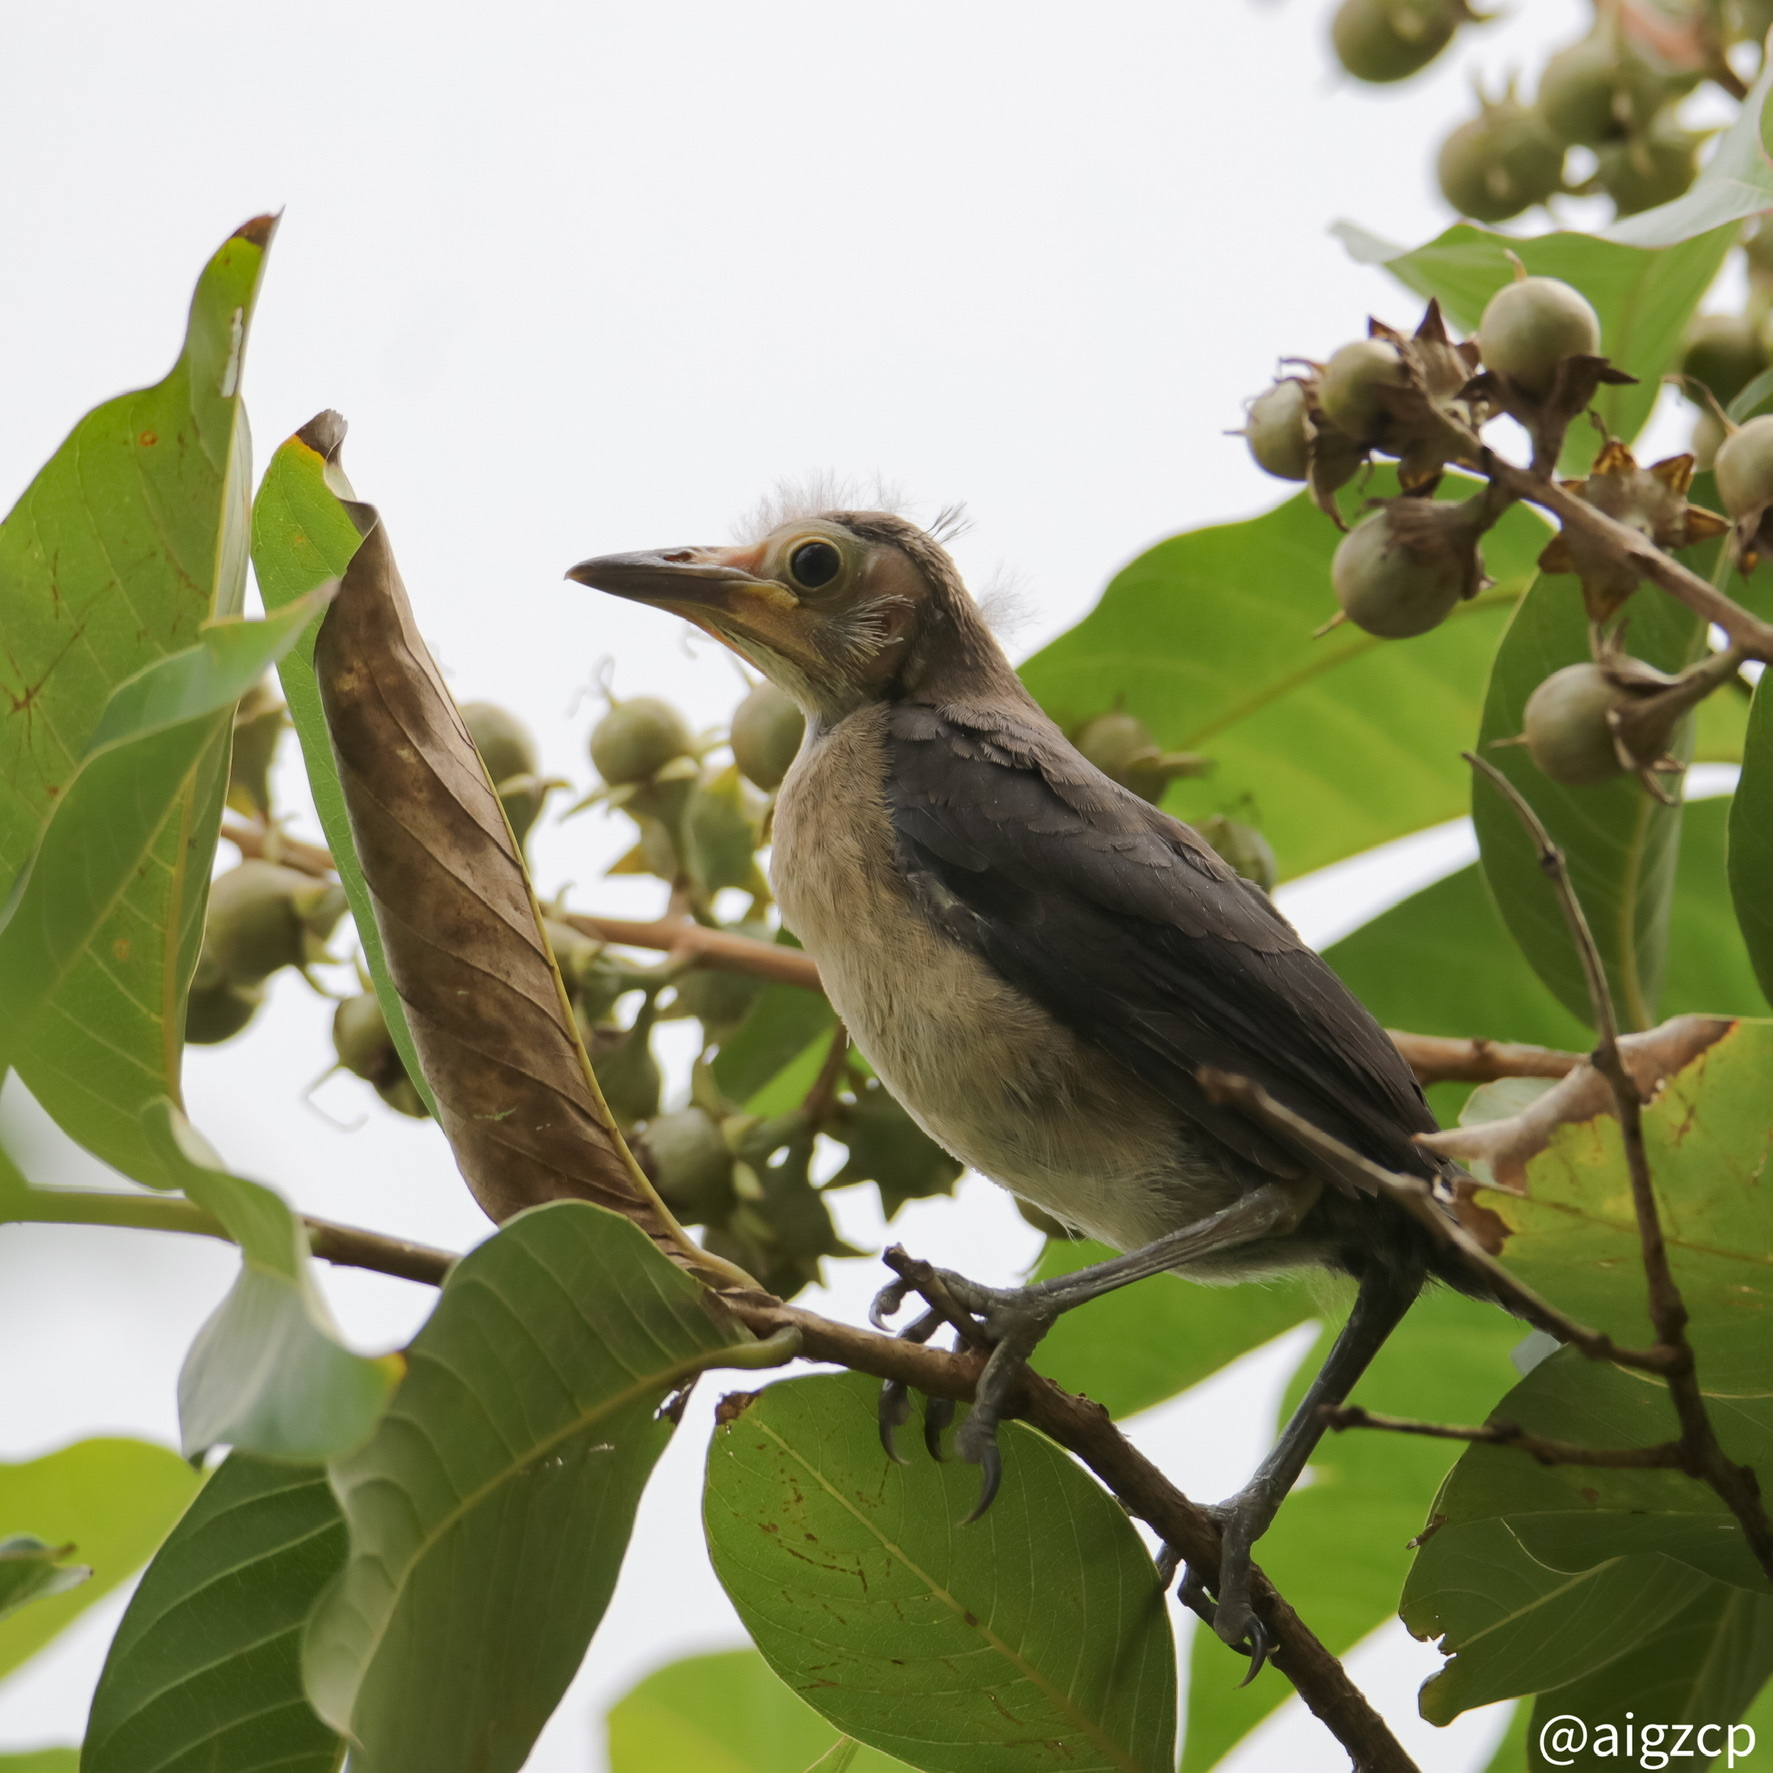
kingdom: Animalia
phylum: Chordata
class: Aves
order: Passeriformes
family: Icteridae
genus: Quiscalus
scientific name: Quiscalus mexicanus
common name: Great-tailed grackle
